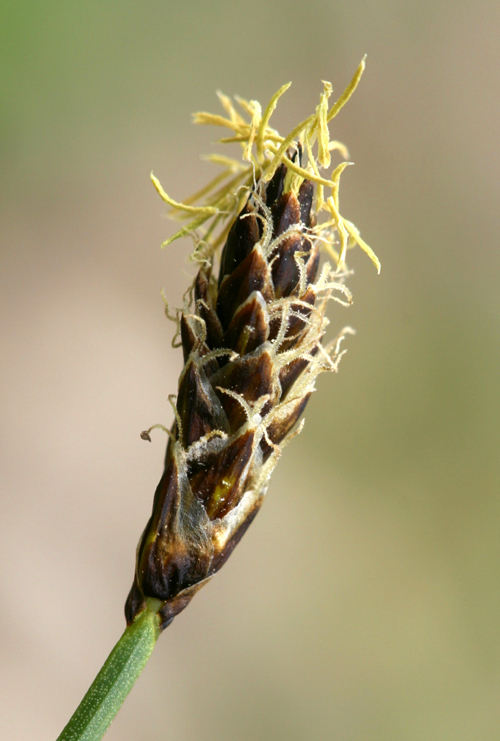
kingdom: Plantae
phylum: Tracheophyta
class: Liliopsida
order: Poales
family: Cyperaceae
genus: Carex
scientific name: Carex filifolia
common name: Threadleaf sedge
